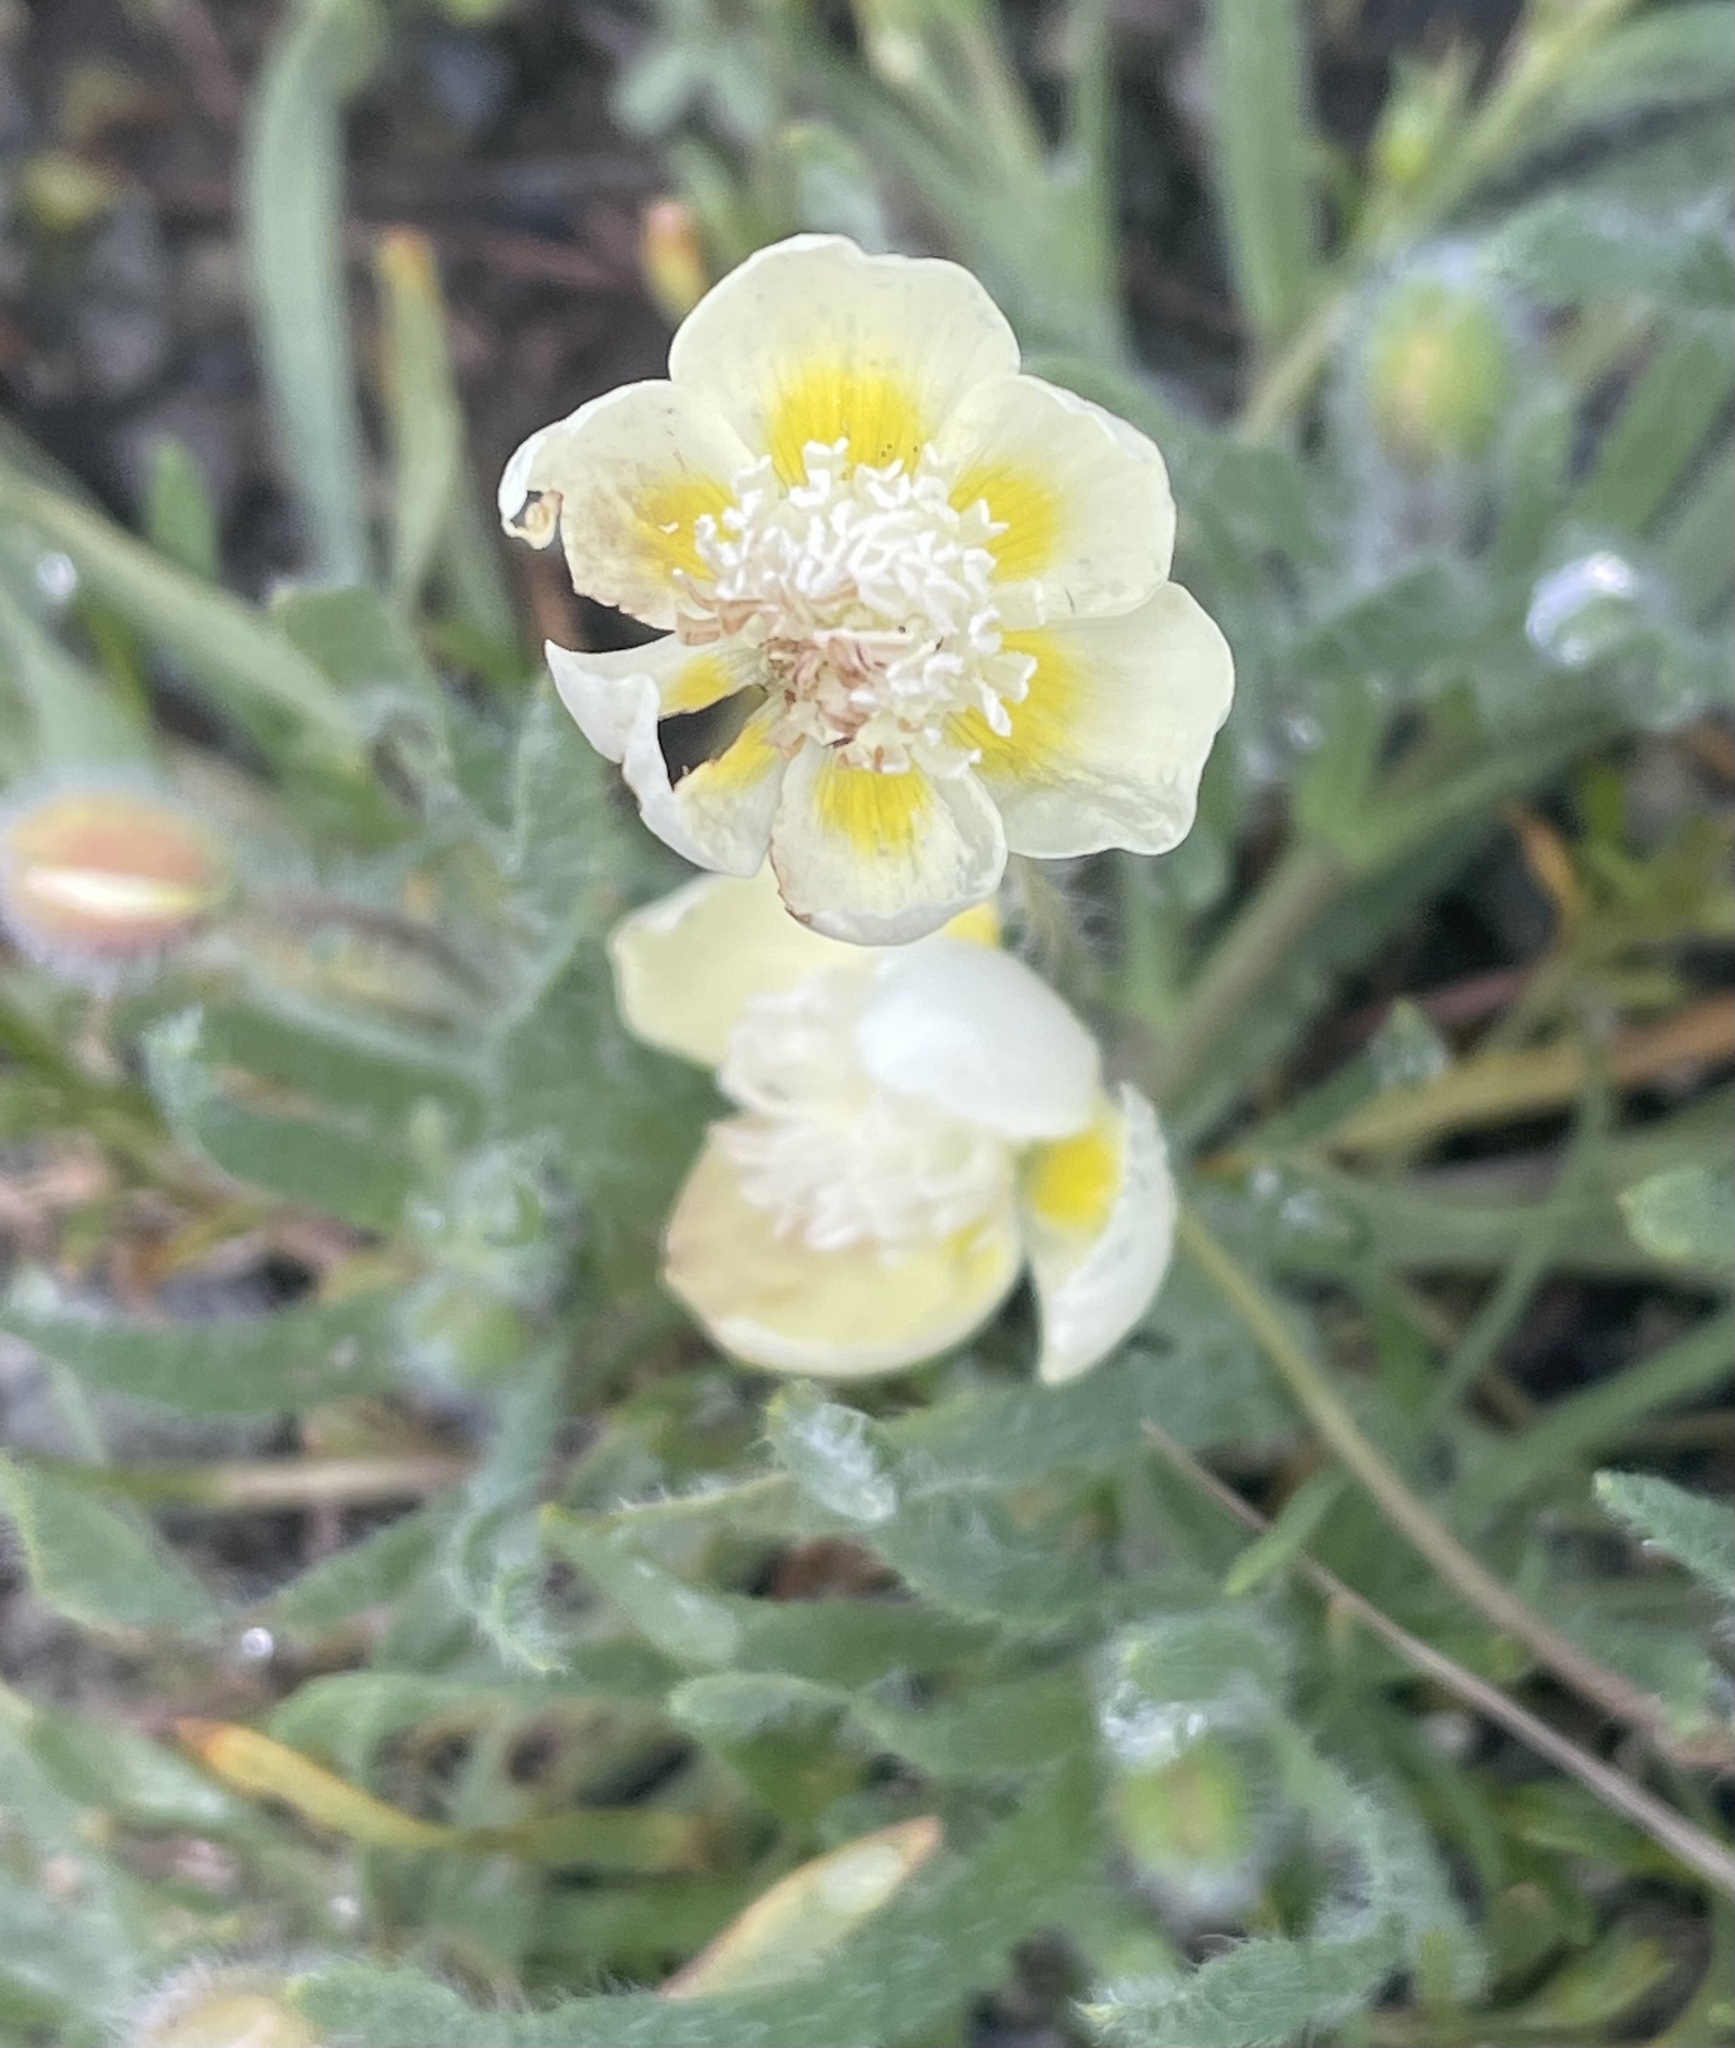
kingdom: Plantae
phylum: Tracheophyta
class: Magnoliopsida
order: Ranunculales
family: Papaveraceae
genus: Platystemon
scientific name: Platystemon californicus
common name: Cream-cups
